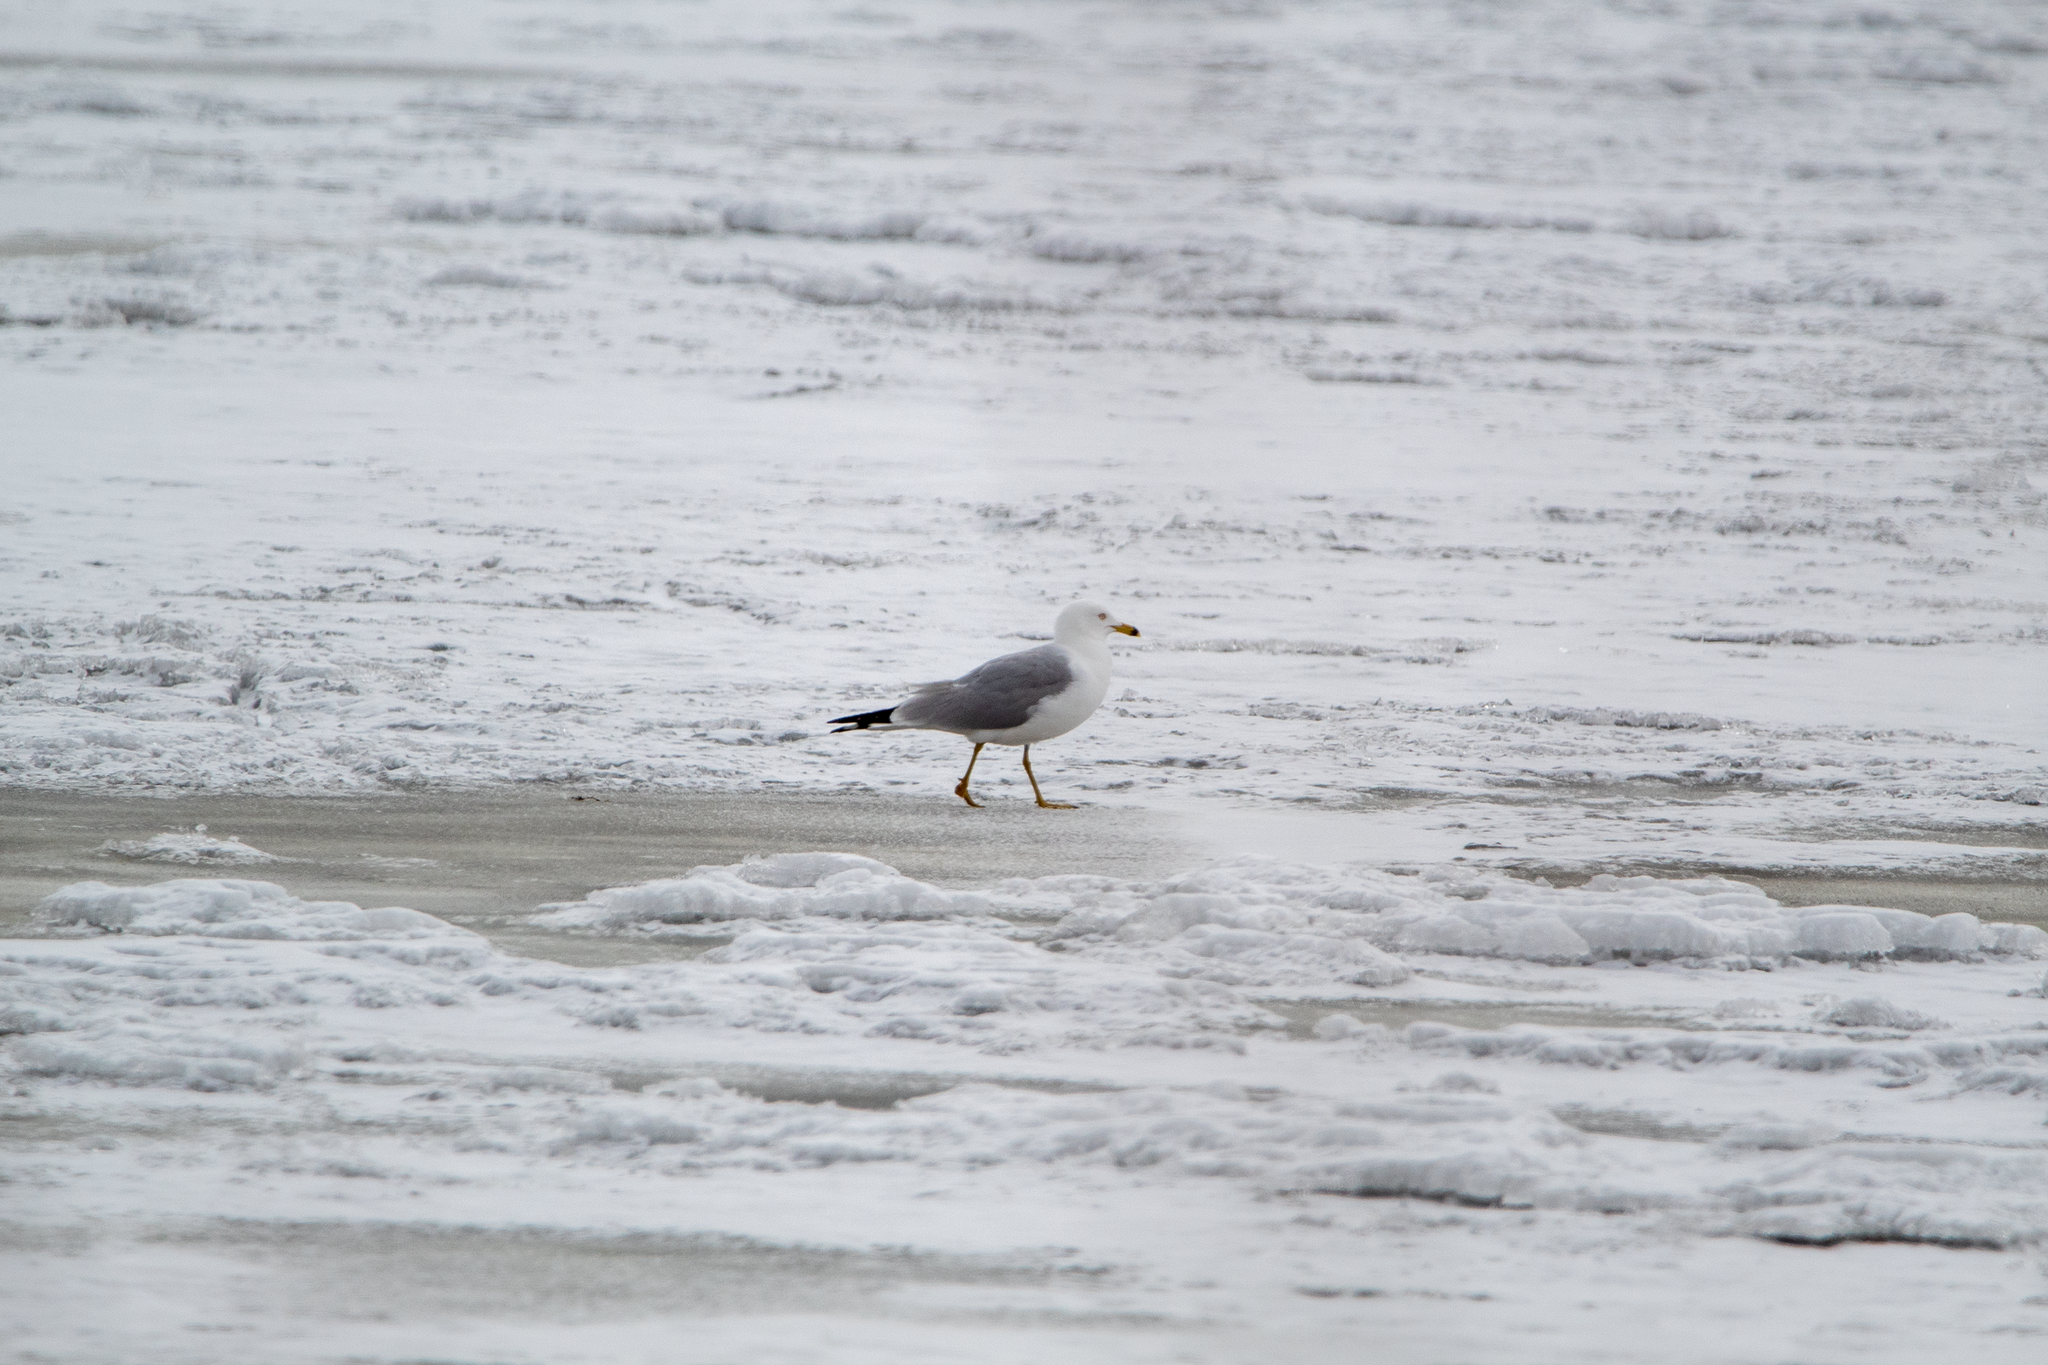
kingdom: Animalia
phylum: Chordata
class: Aves
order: Charadriiformes
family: Laridae
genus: Larus
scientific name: Larus delawarensis
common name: Ring-billed gull
